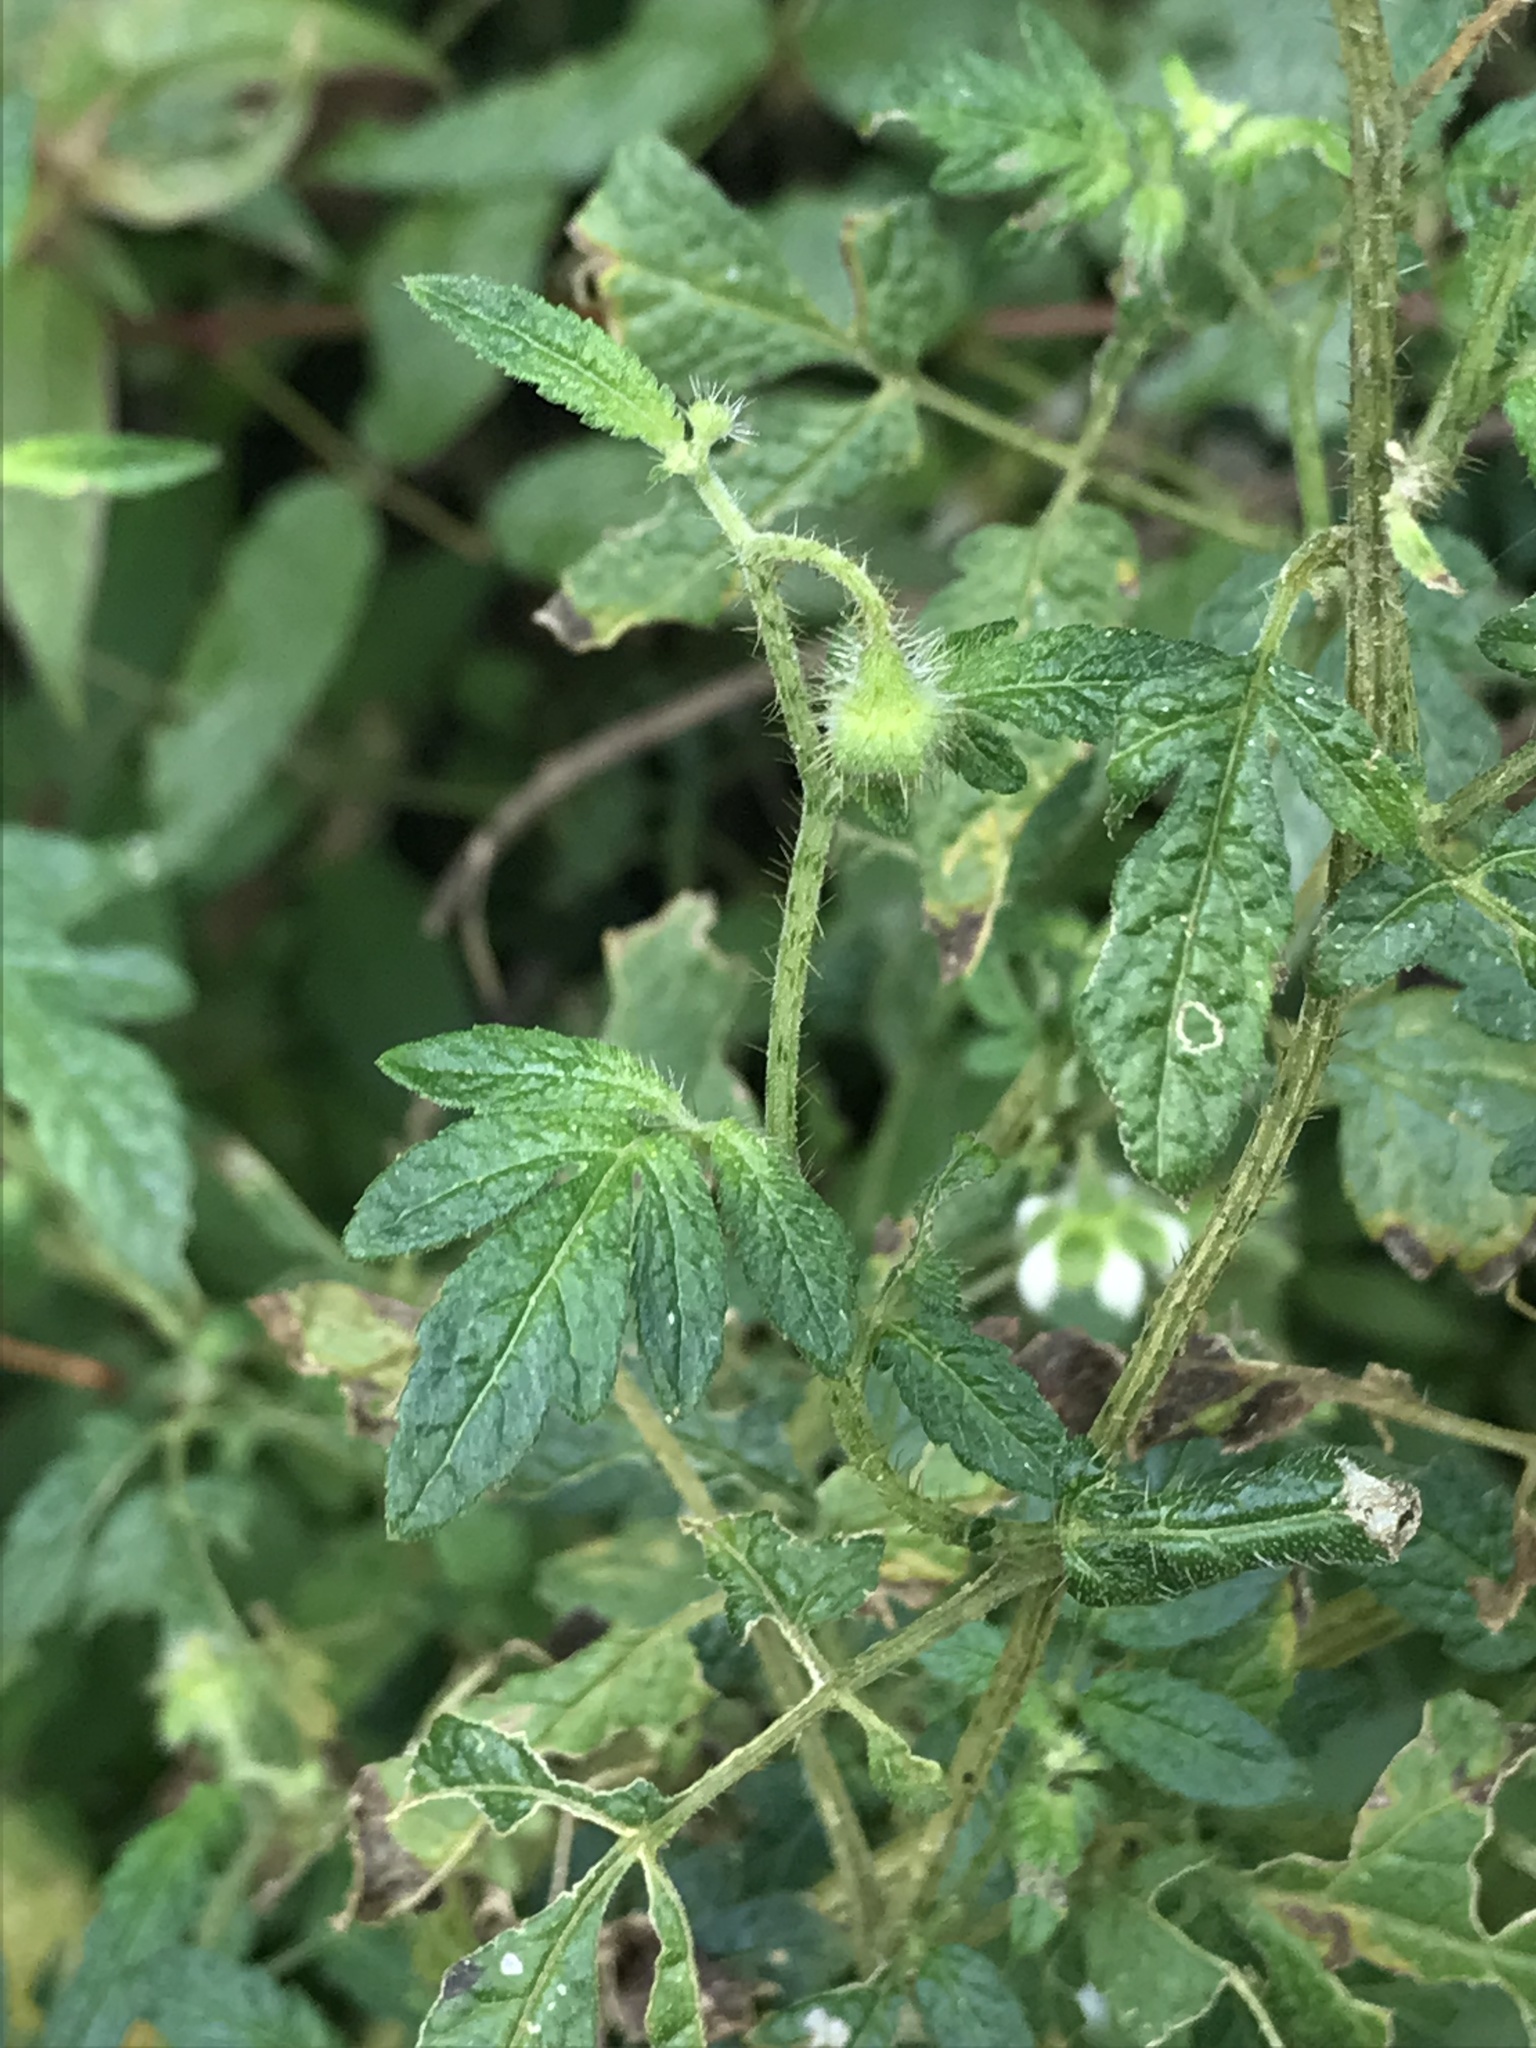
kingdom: Plantae
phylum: Tracheophyta
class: Magnoliopsida
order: Cornales
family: Loasaceae
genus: Nasa
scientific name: Nasa triphylla
